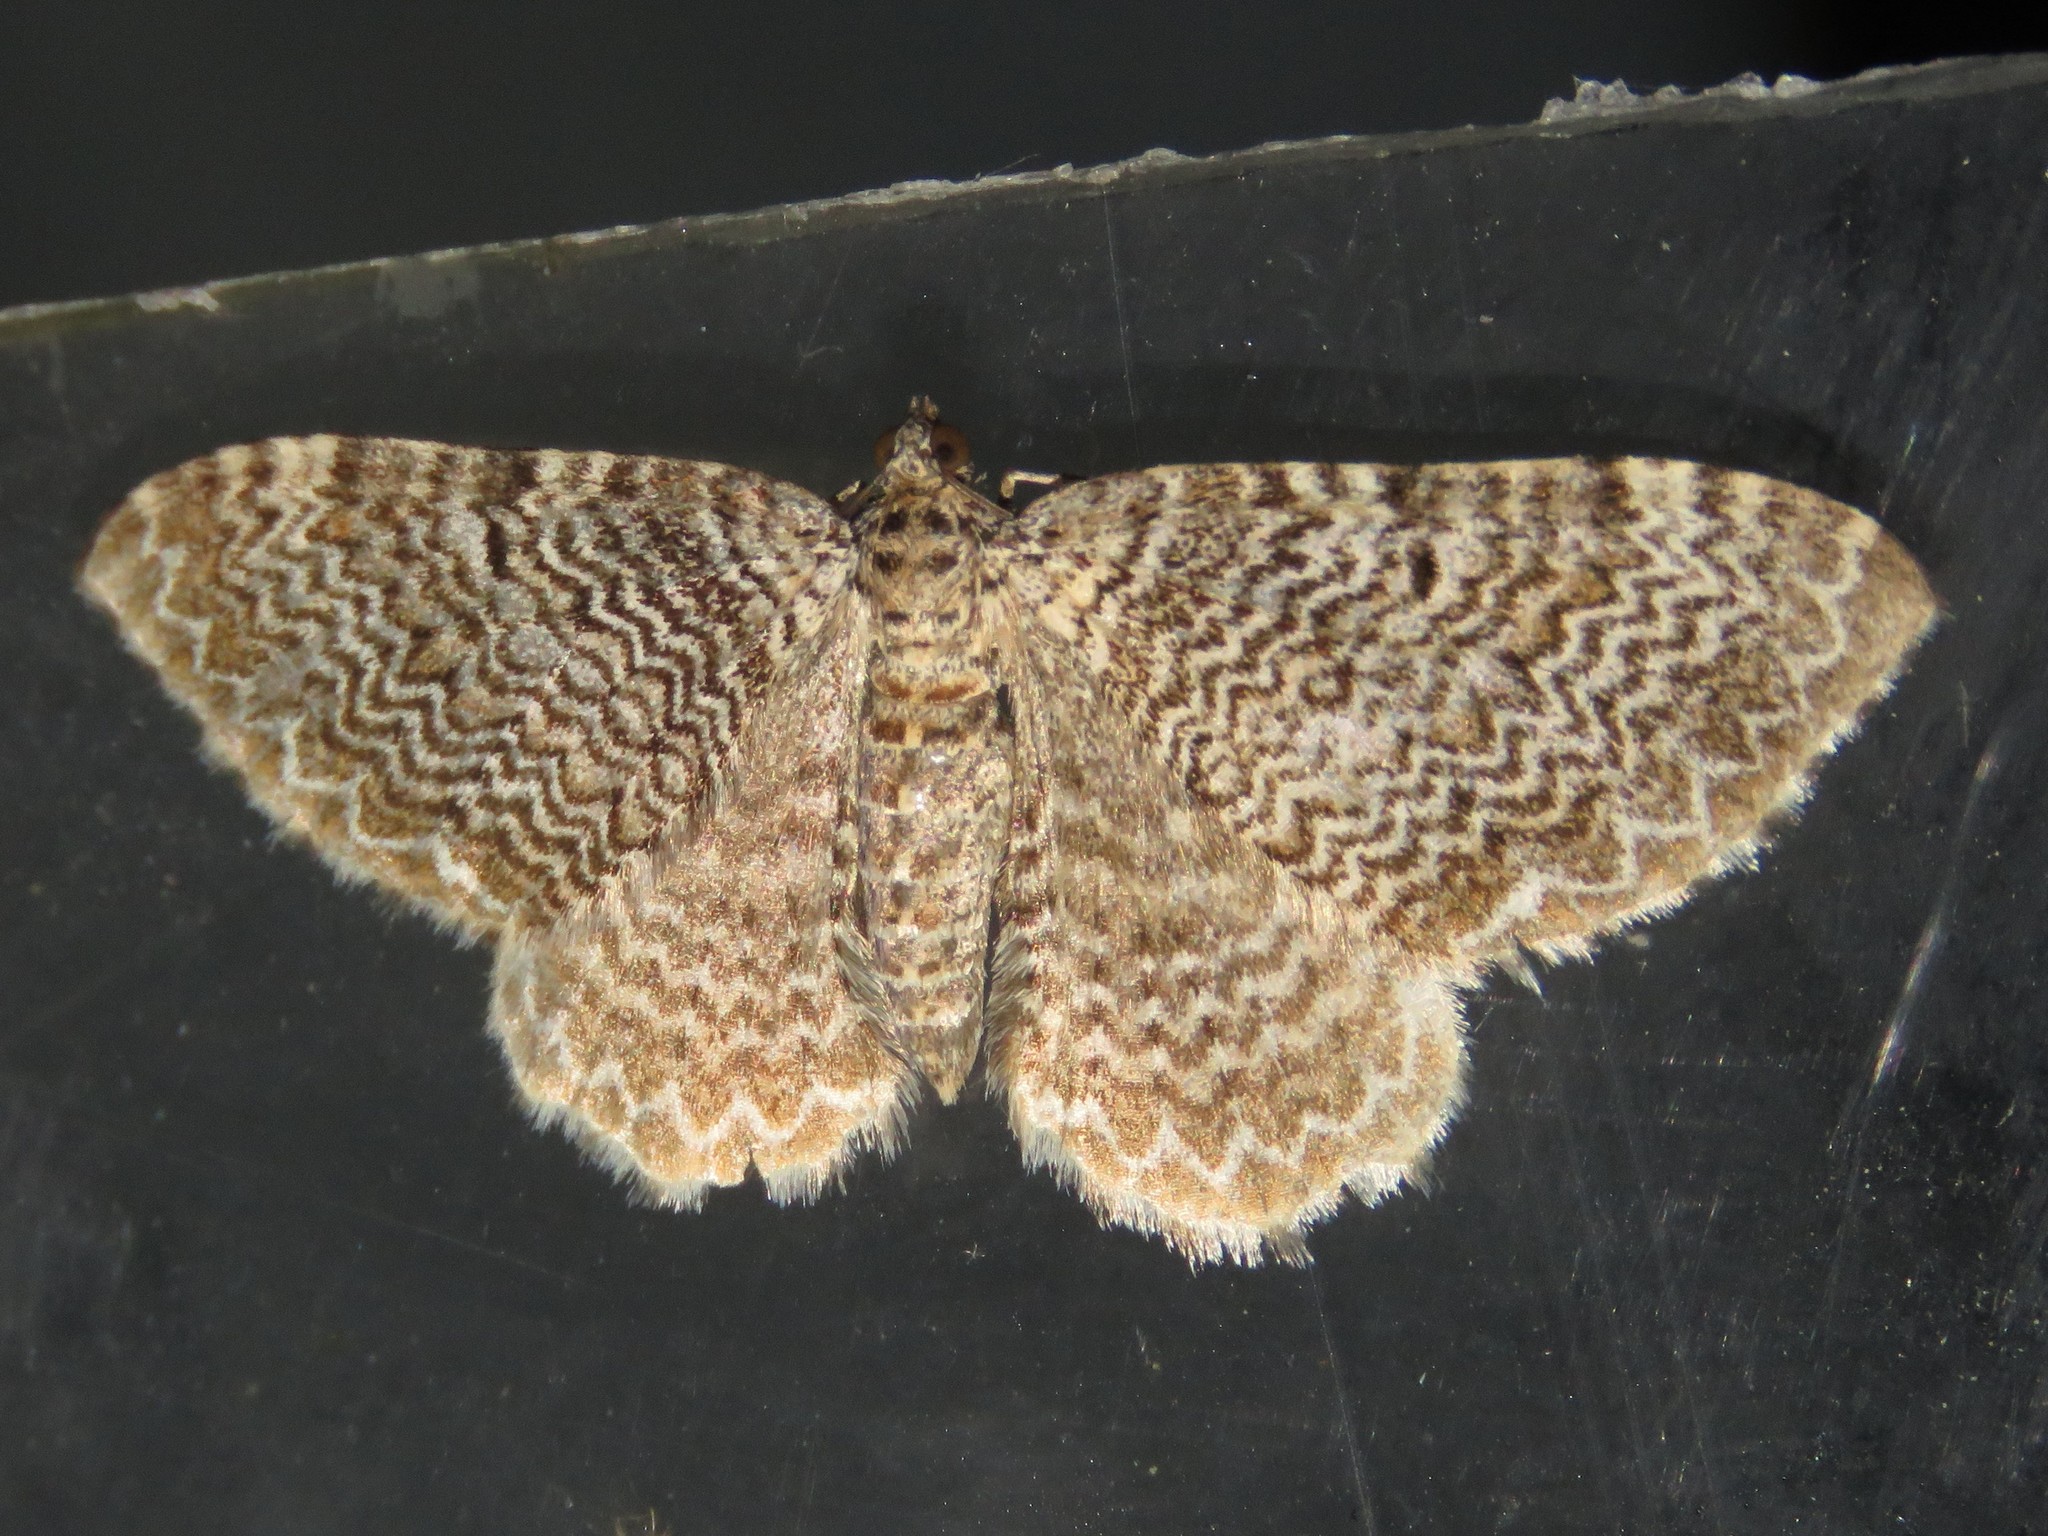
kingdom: Animalia
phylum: Arthropoda
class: Insecta
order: Lepidoptera
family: Geometridae
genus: Rheumaptera
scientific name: Rheumaptera
